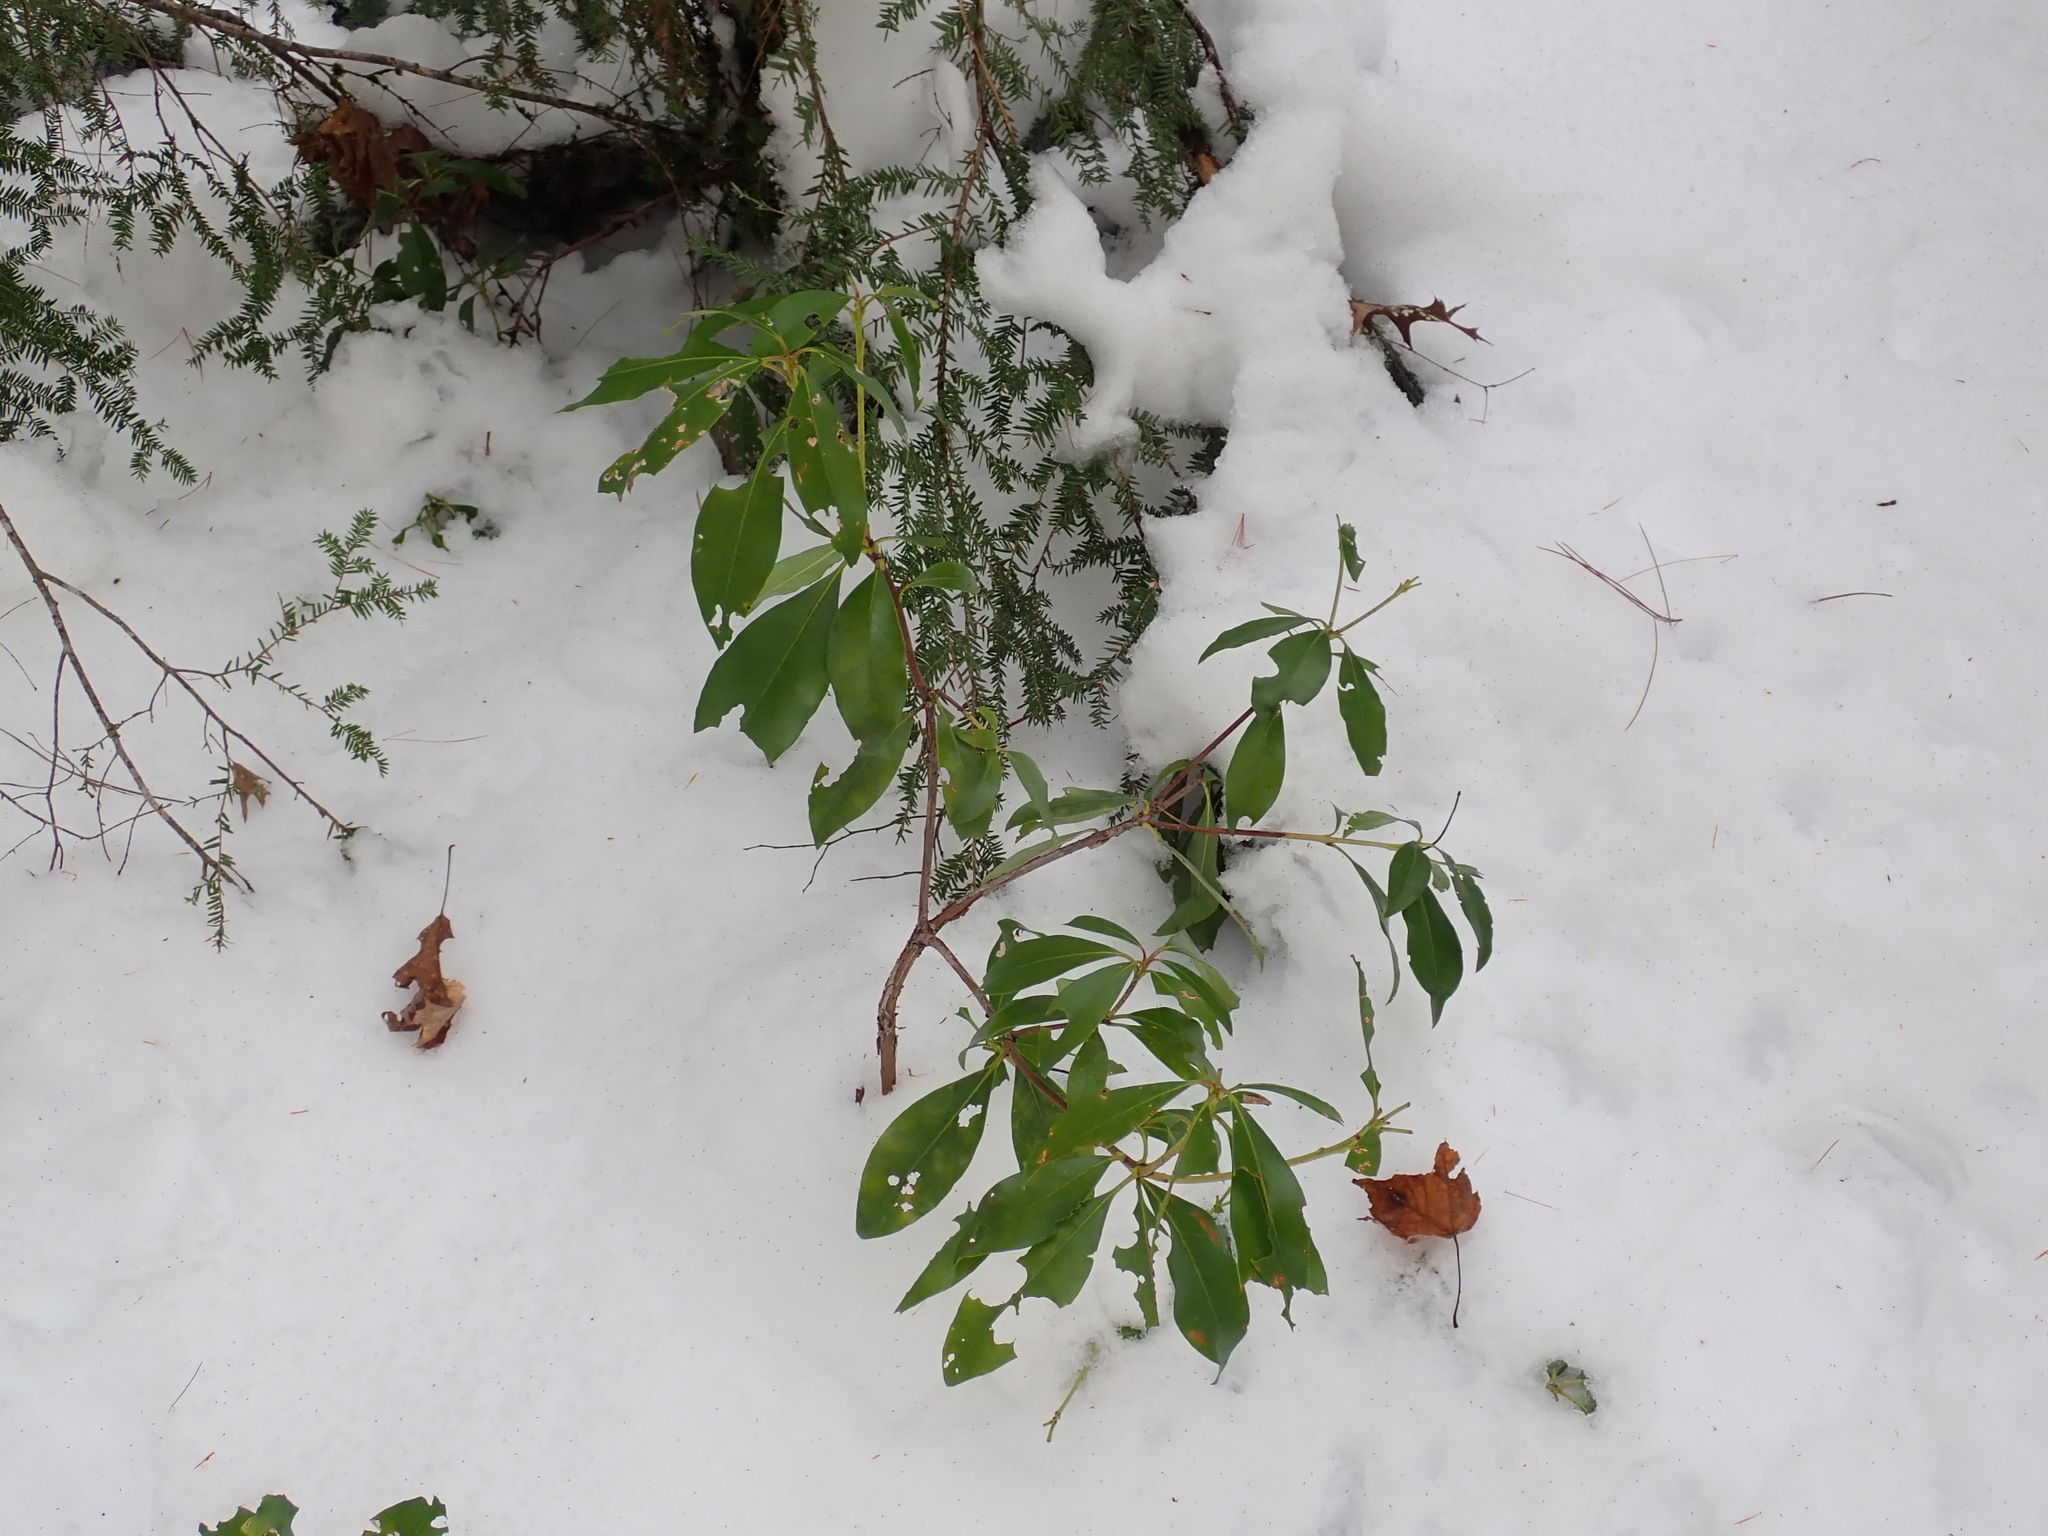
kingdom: Plantae
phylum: Tracheophyta
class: Magnoliopsida
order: Ericales
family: Ericaceae
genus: Kalmia
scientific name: Kalmia latifolia
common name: Mountain-laurel
